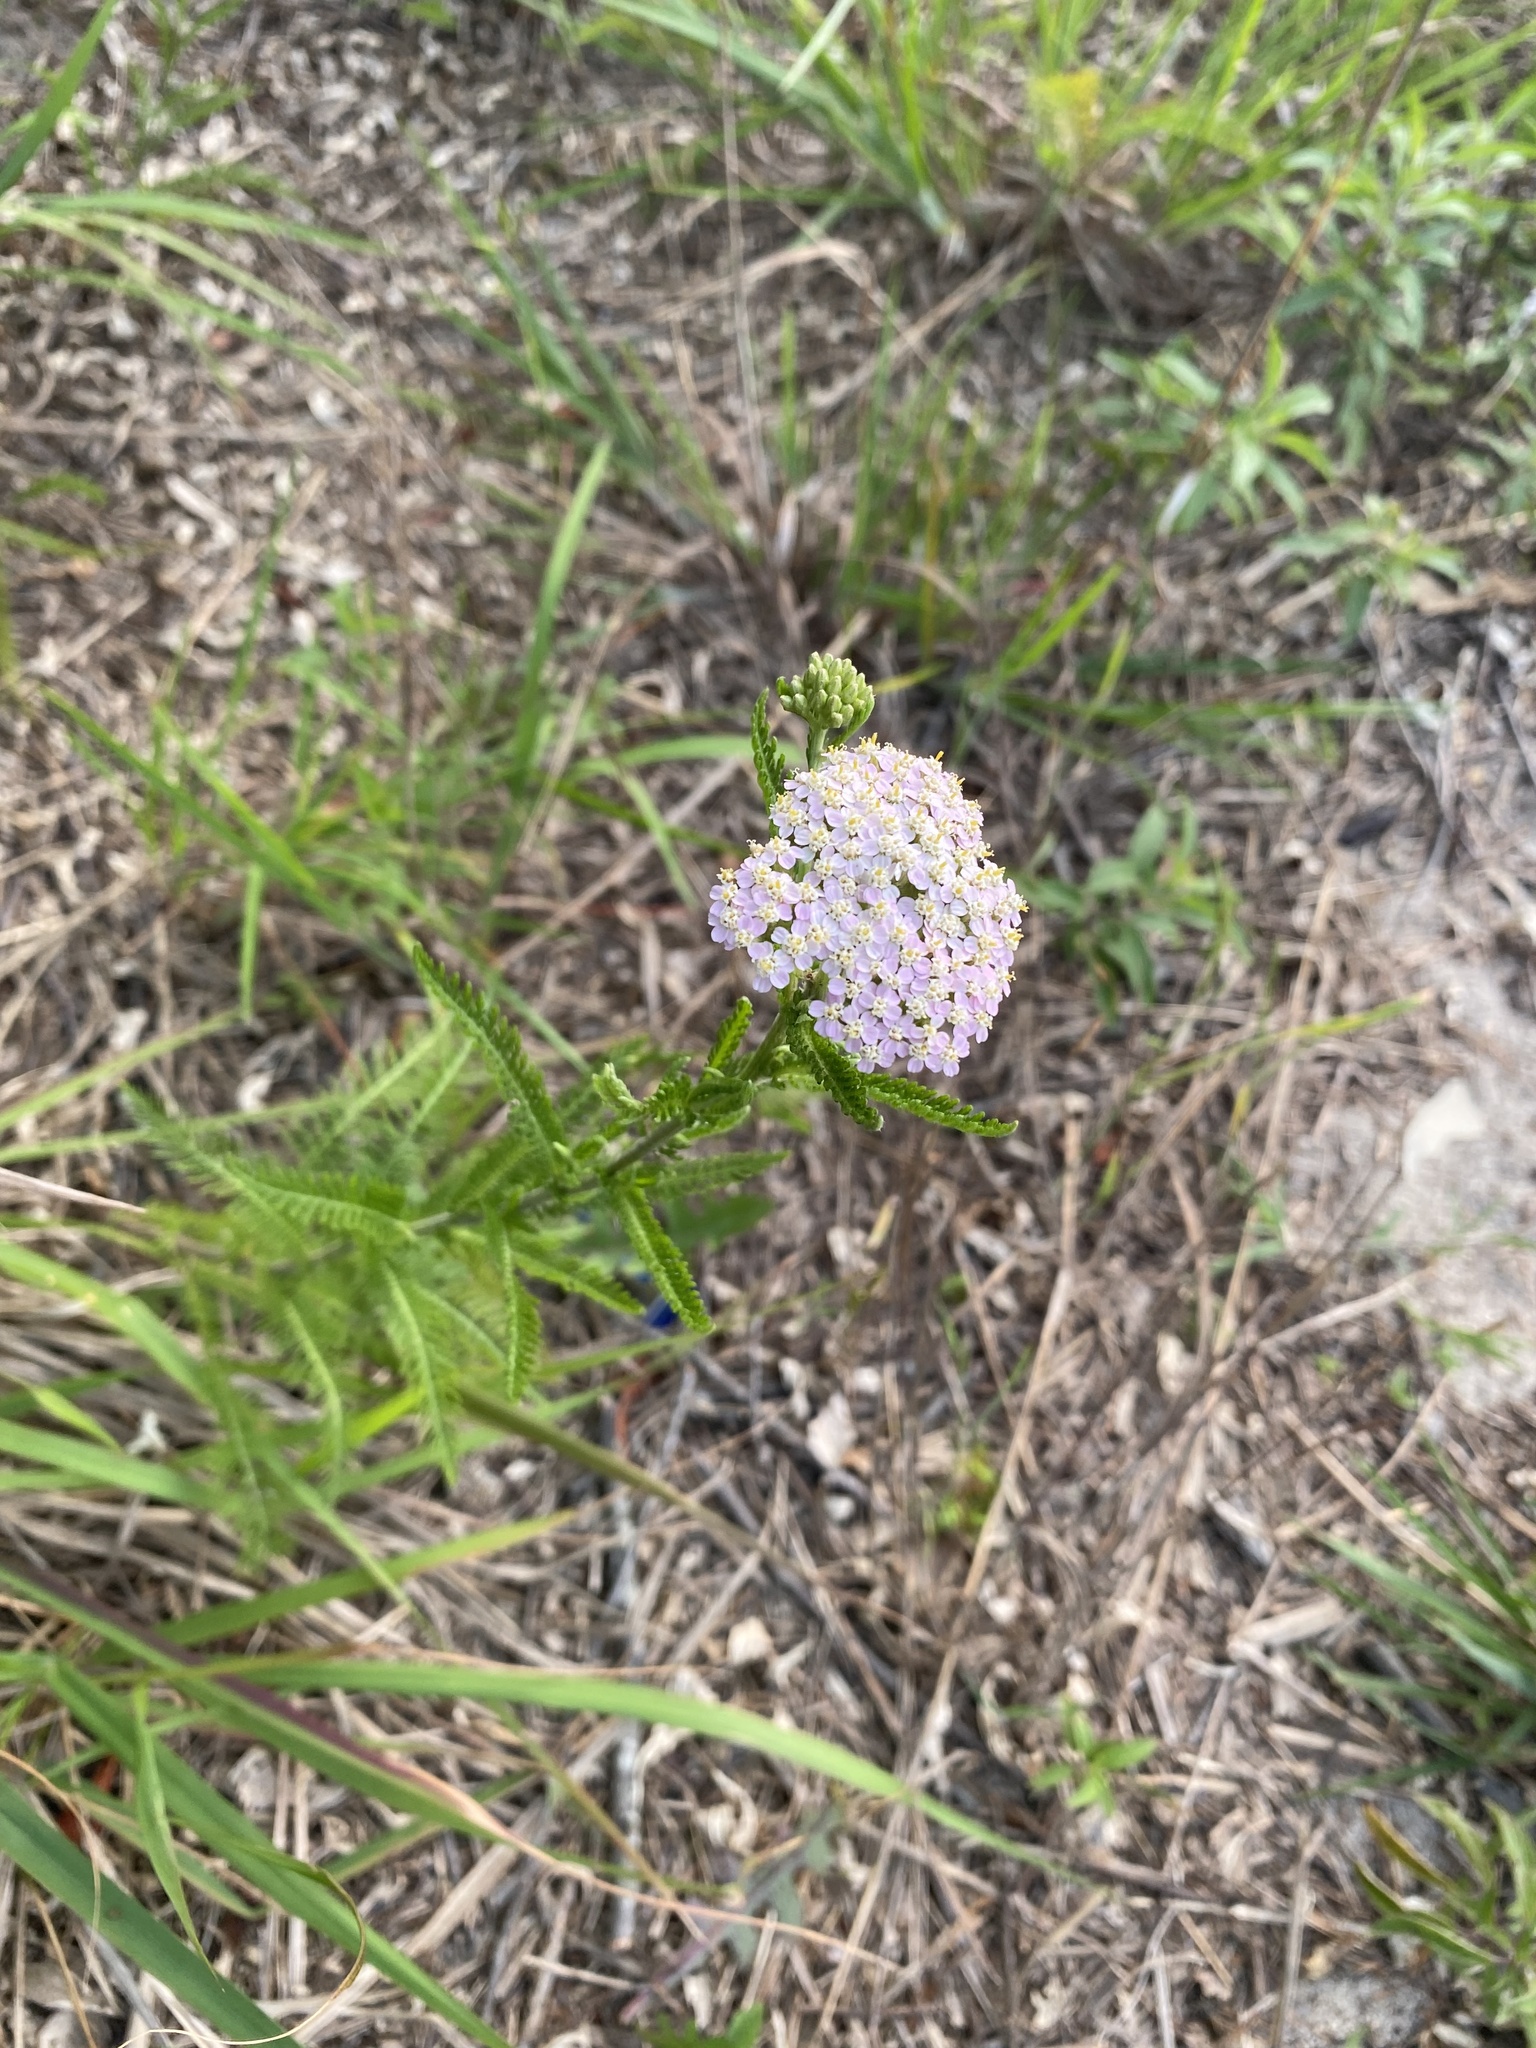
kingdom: Plantae
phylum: Tracheophyta
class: Magnoliopsida
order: Asterales
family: Asteraceae
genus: Achillea
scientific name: Achillea millefolium
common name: Yarrow
